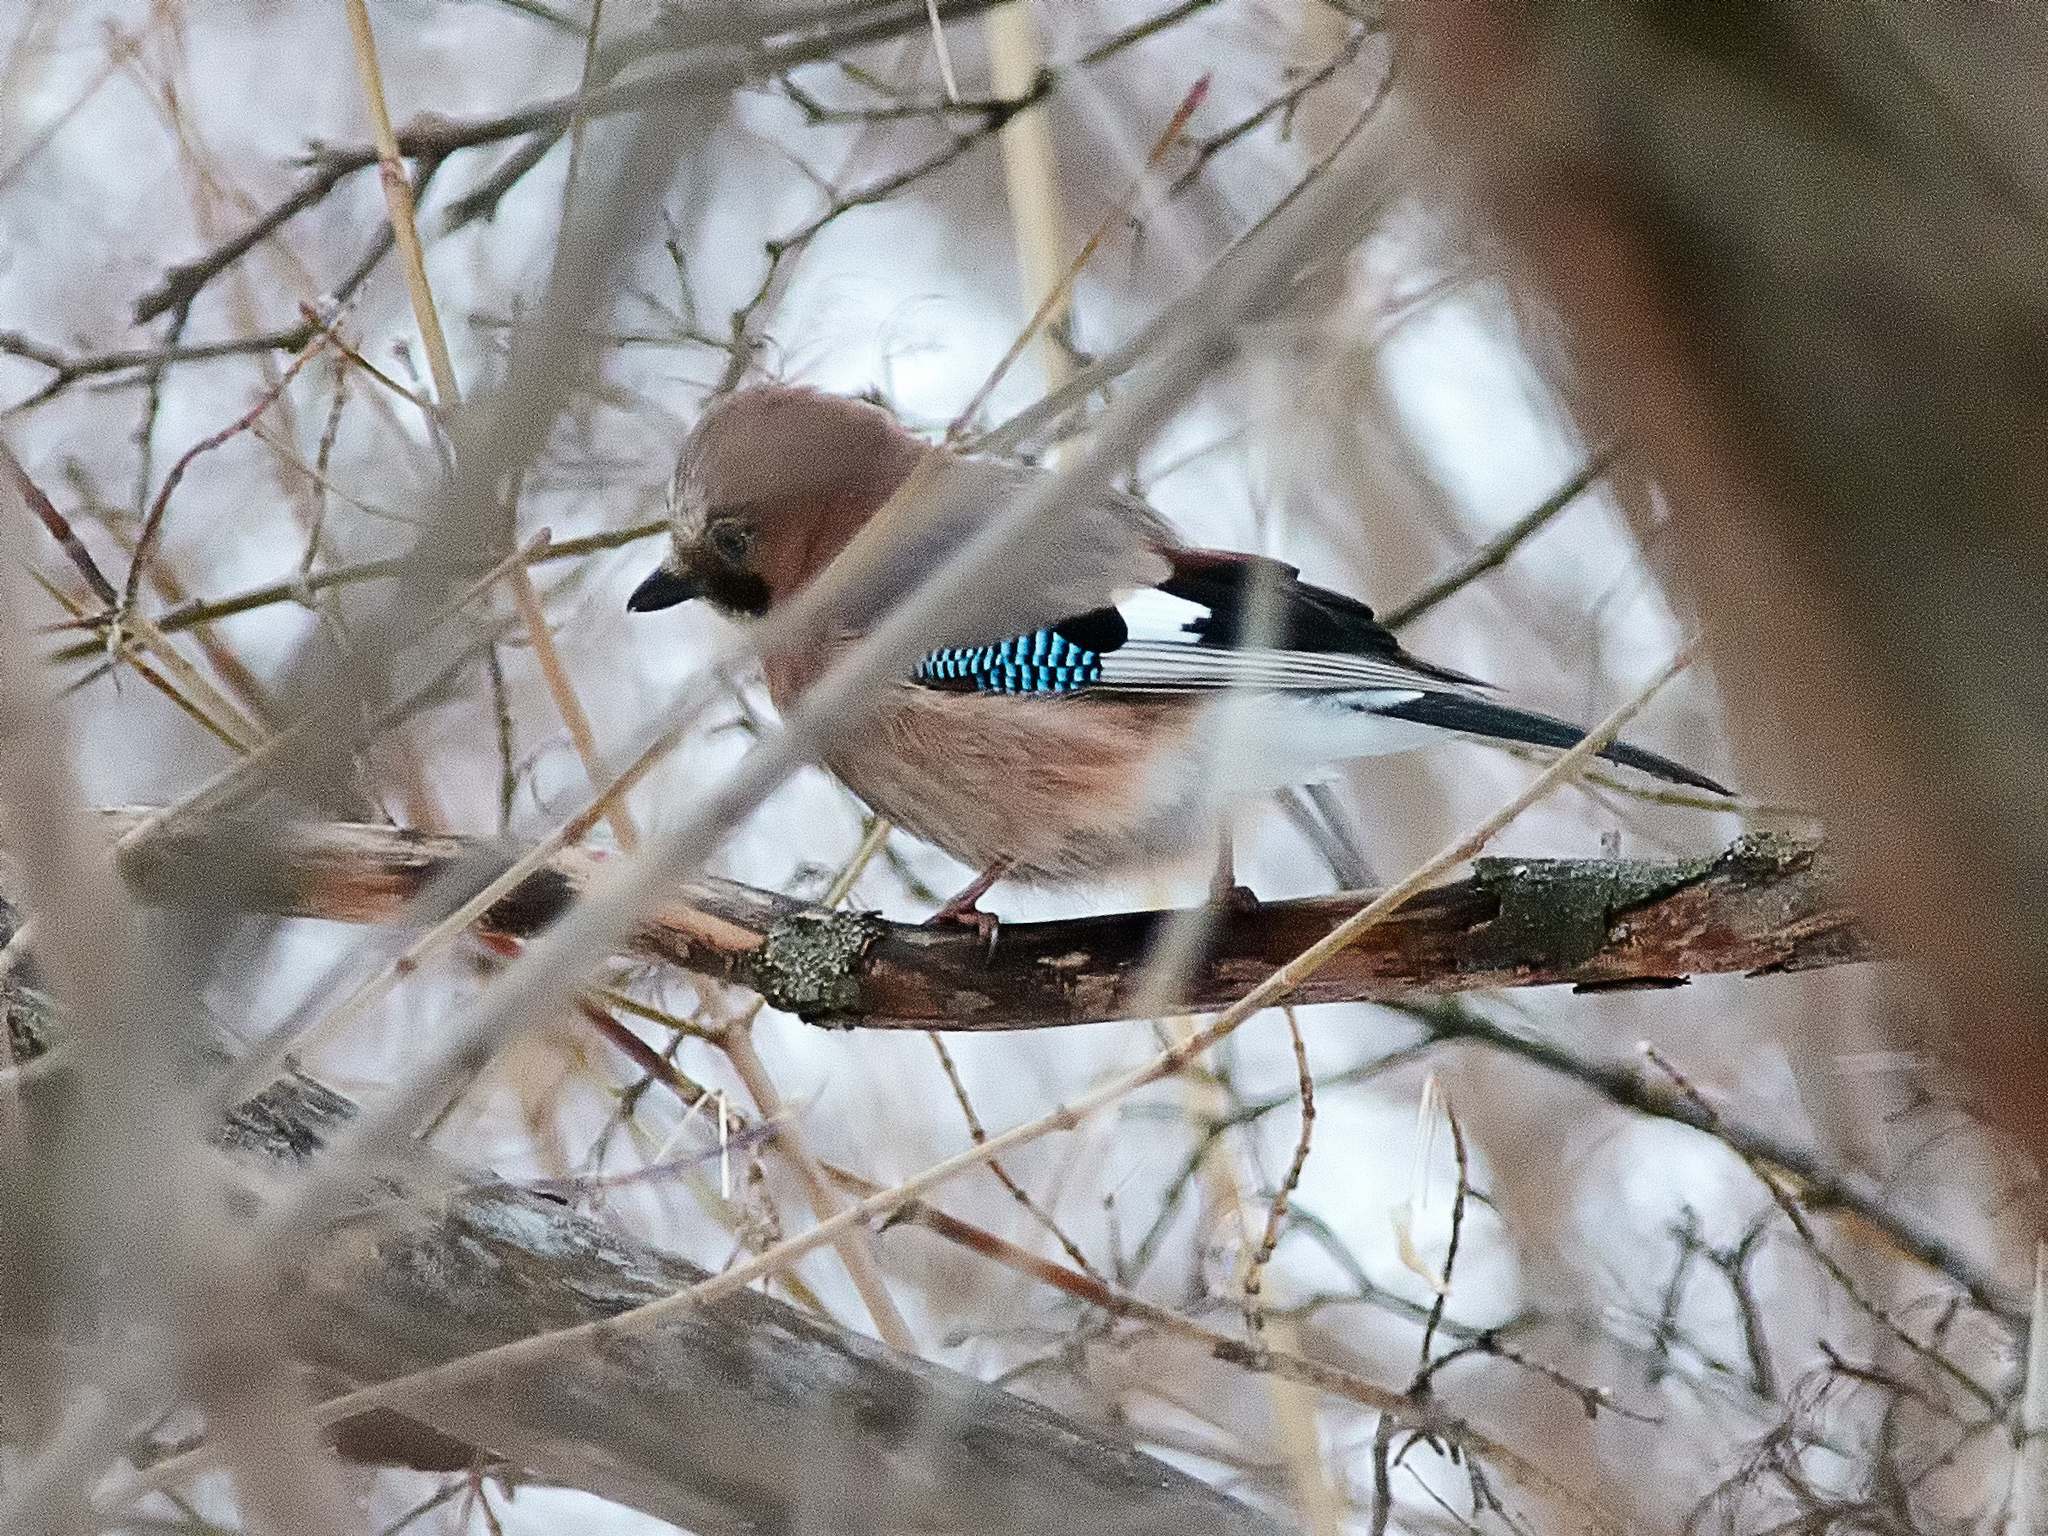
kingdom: Animalia
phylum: Chordata
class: Aves
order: Passeriformes
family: Corvidae
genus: Garrulus
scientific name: Garrulus glandarius
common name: Eurasian jay
